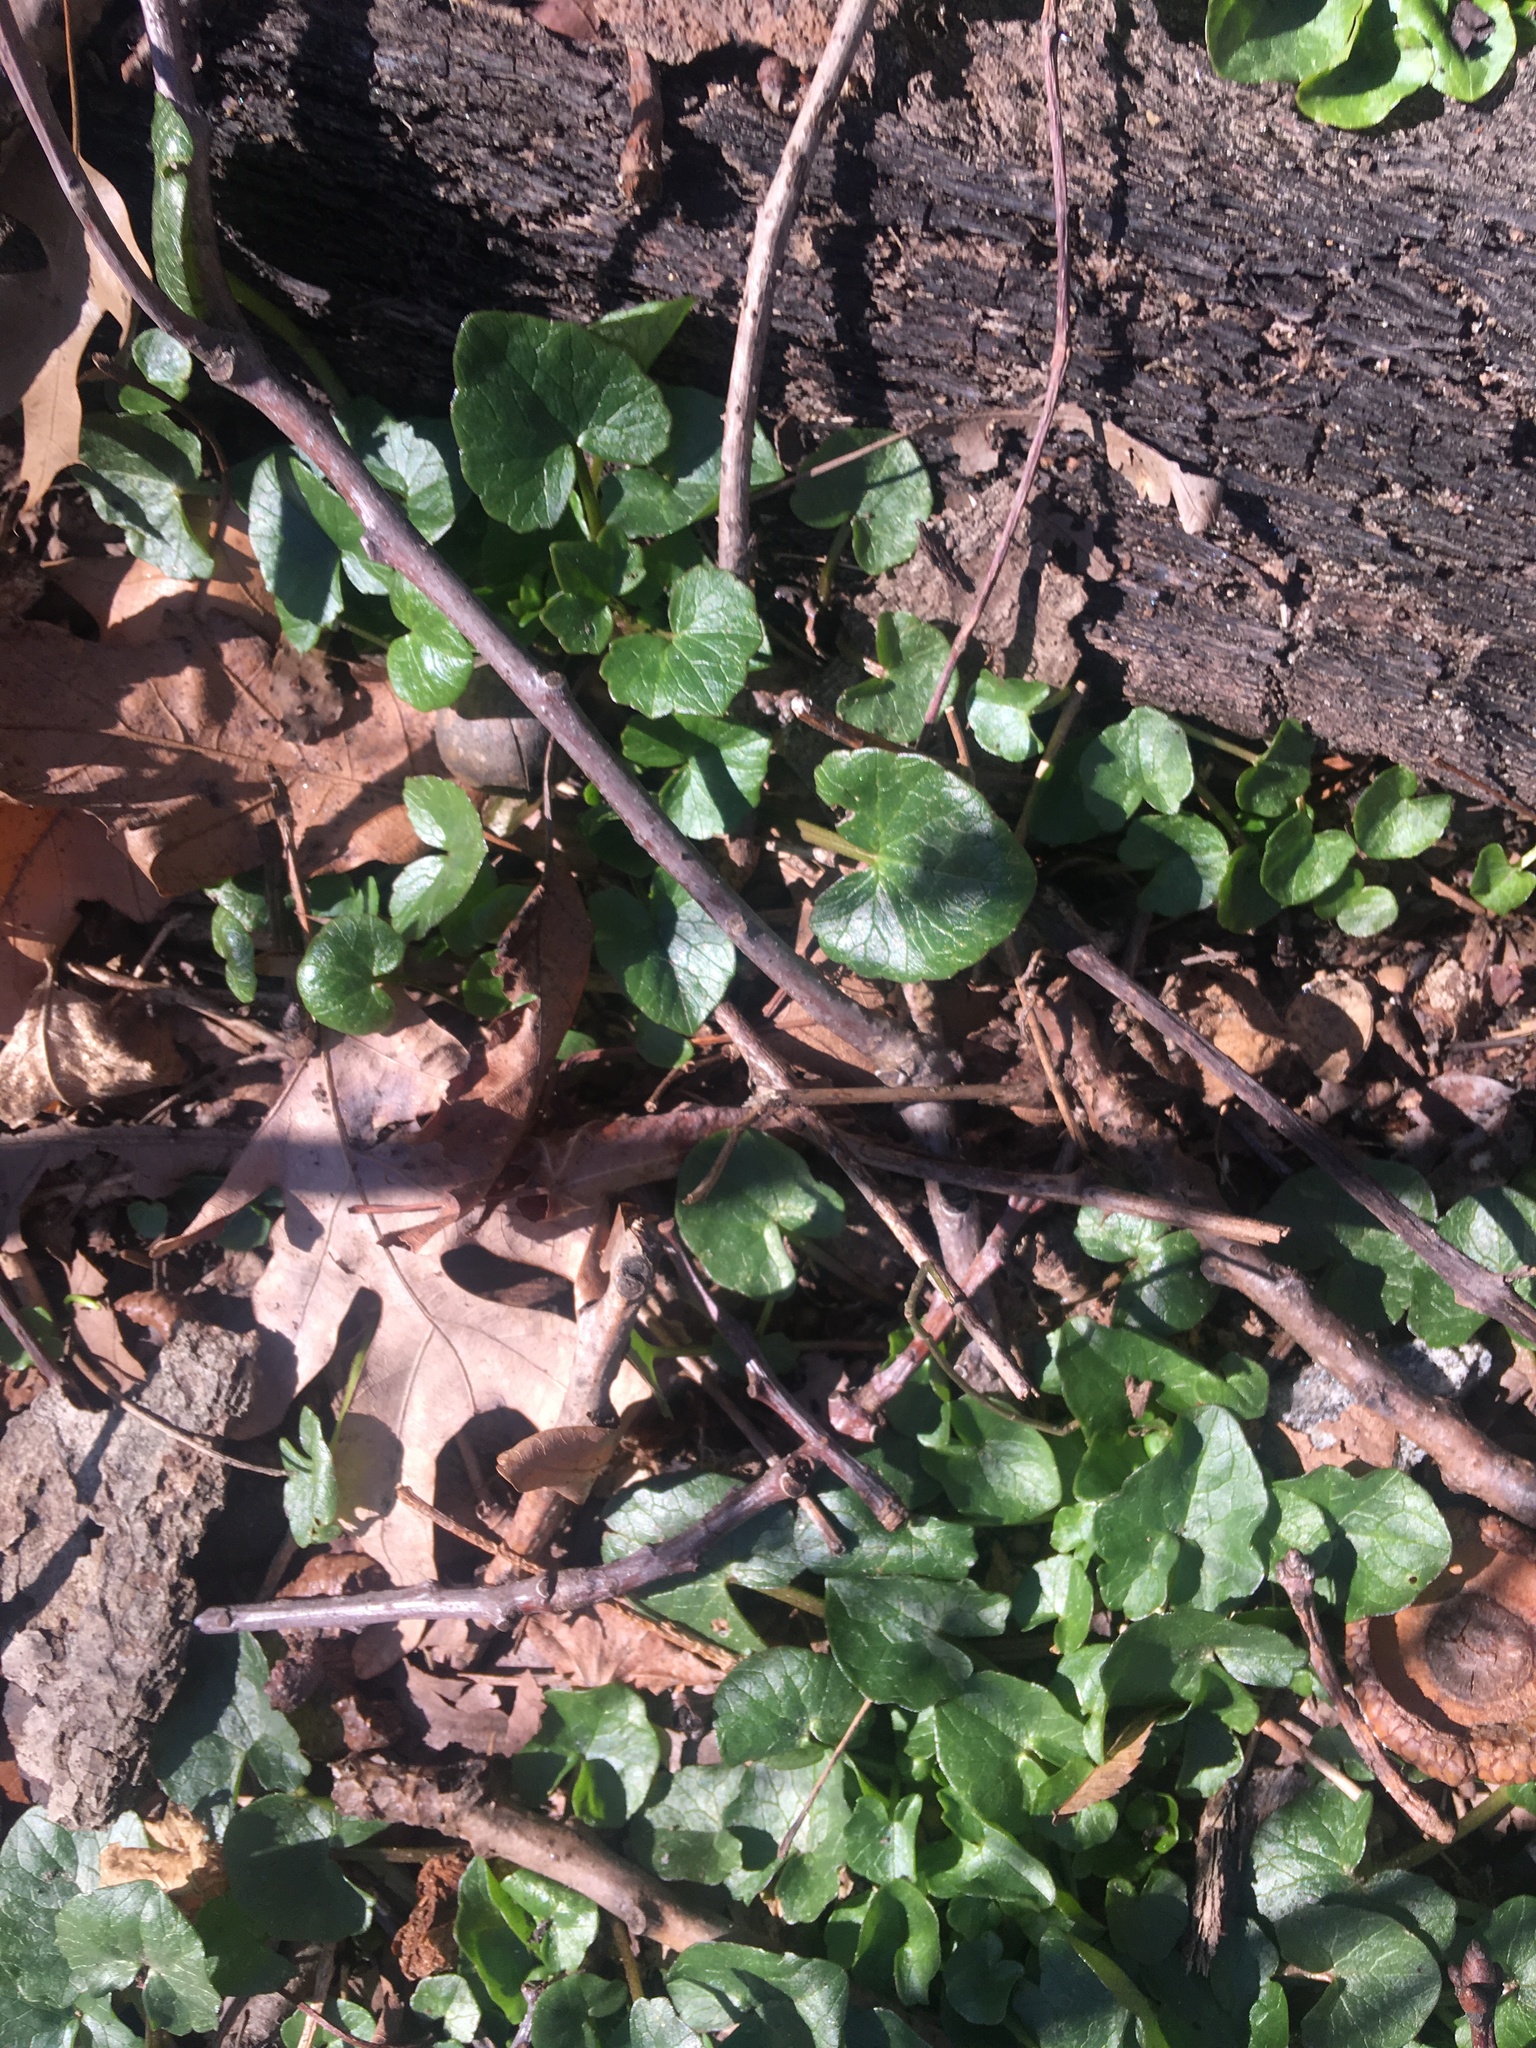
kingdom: Plantae
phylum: Tracheophyta
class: Magnoliopsida
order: Ranunculales
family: Ranunculaceae
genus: Ficaria
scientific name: Ficaria verna
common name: Lesser celandine
